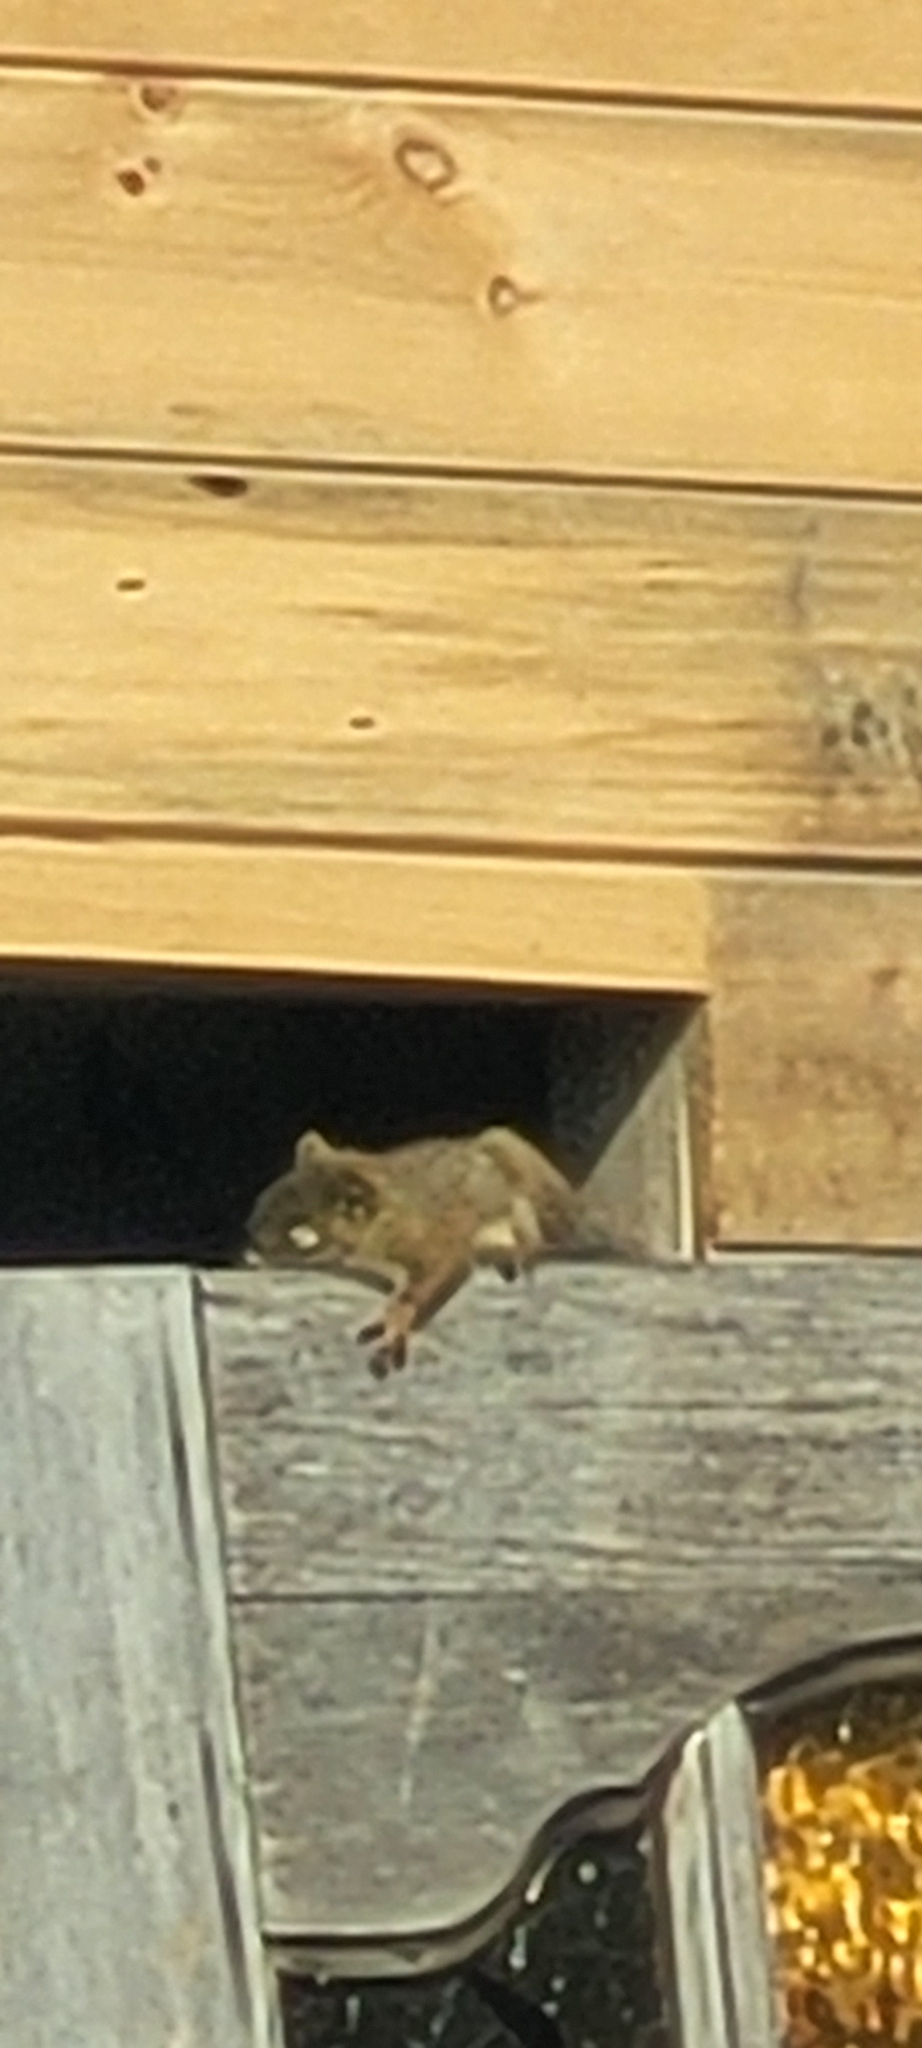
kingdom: Animalia
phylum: Chordata
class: Mammalia
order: Rodentia
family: Sciuridae
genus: Tamiasciurus
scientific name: Tamiasciurus hudsonicus
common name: Red squirrel
